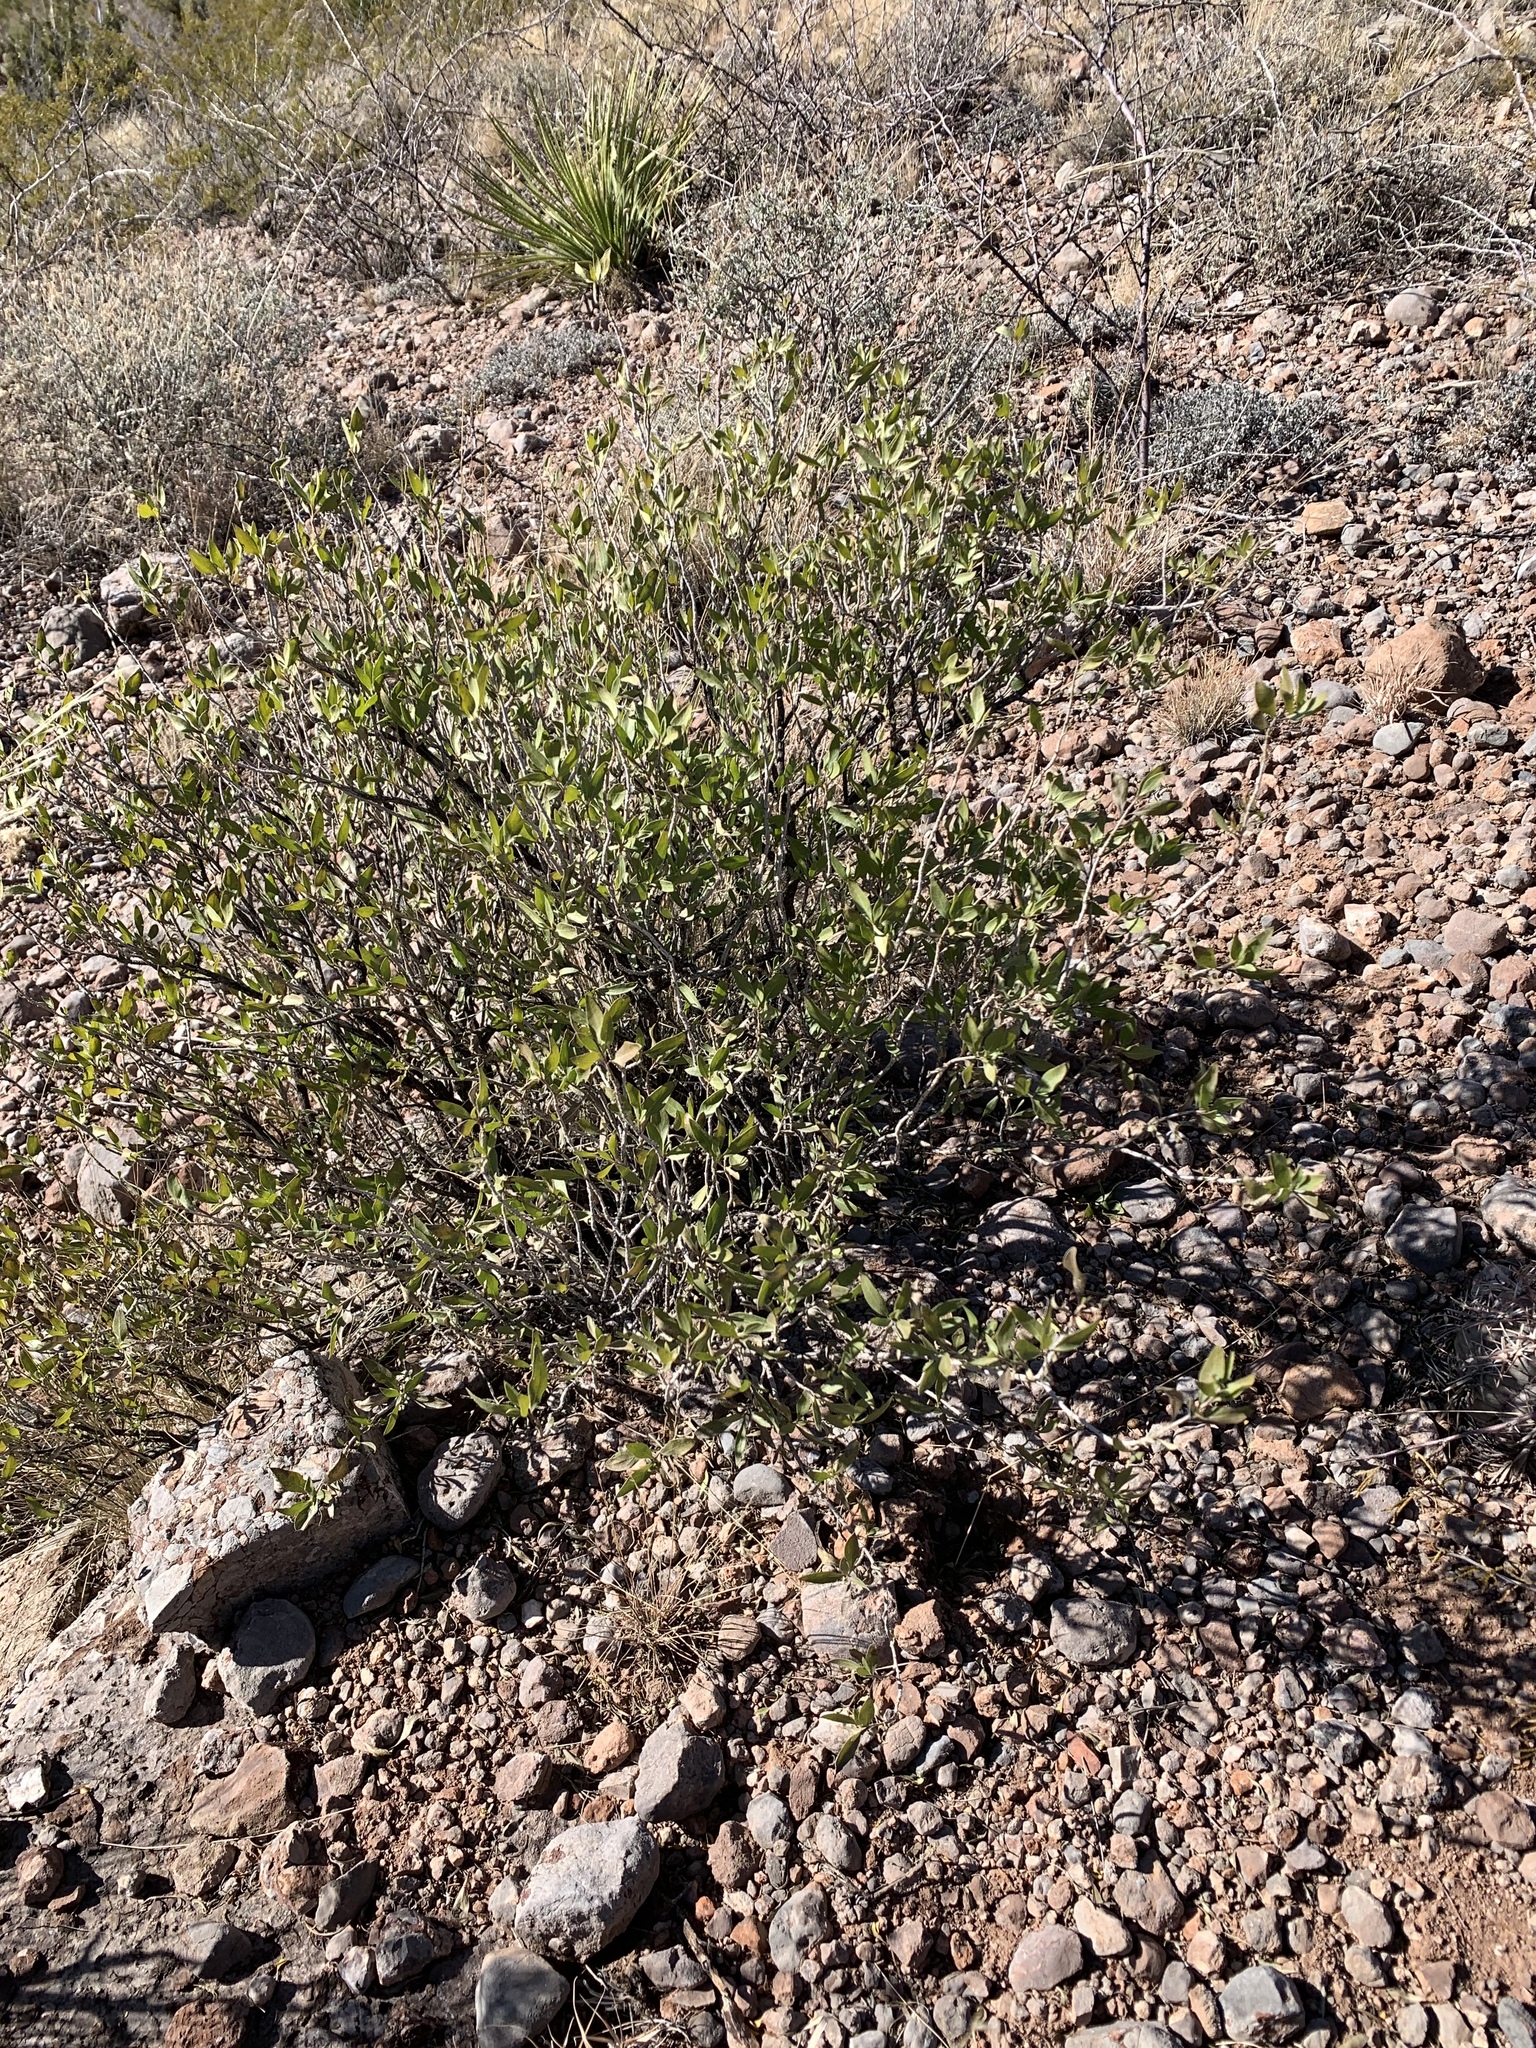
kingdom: Plantae
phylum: Tracheophyta
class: Magnoliopsida
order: Asterales
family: Asteraceae
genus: Flourensia
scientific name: Flourensia cernua
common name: Varnishbush
